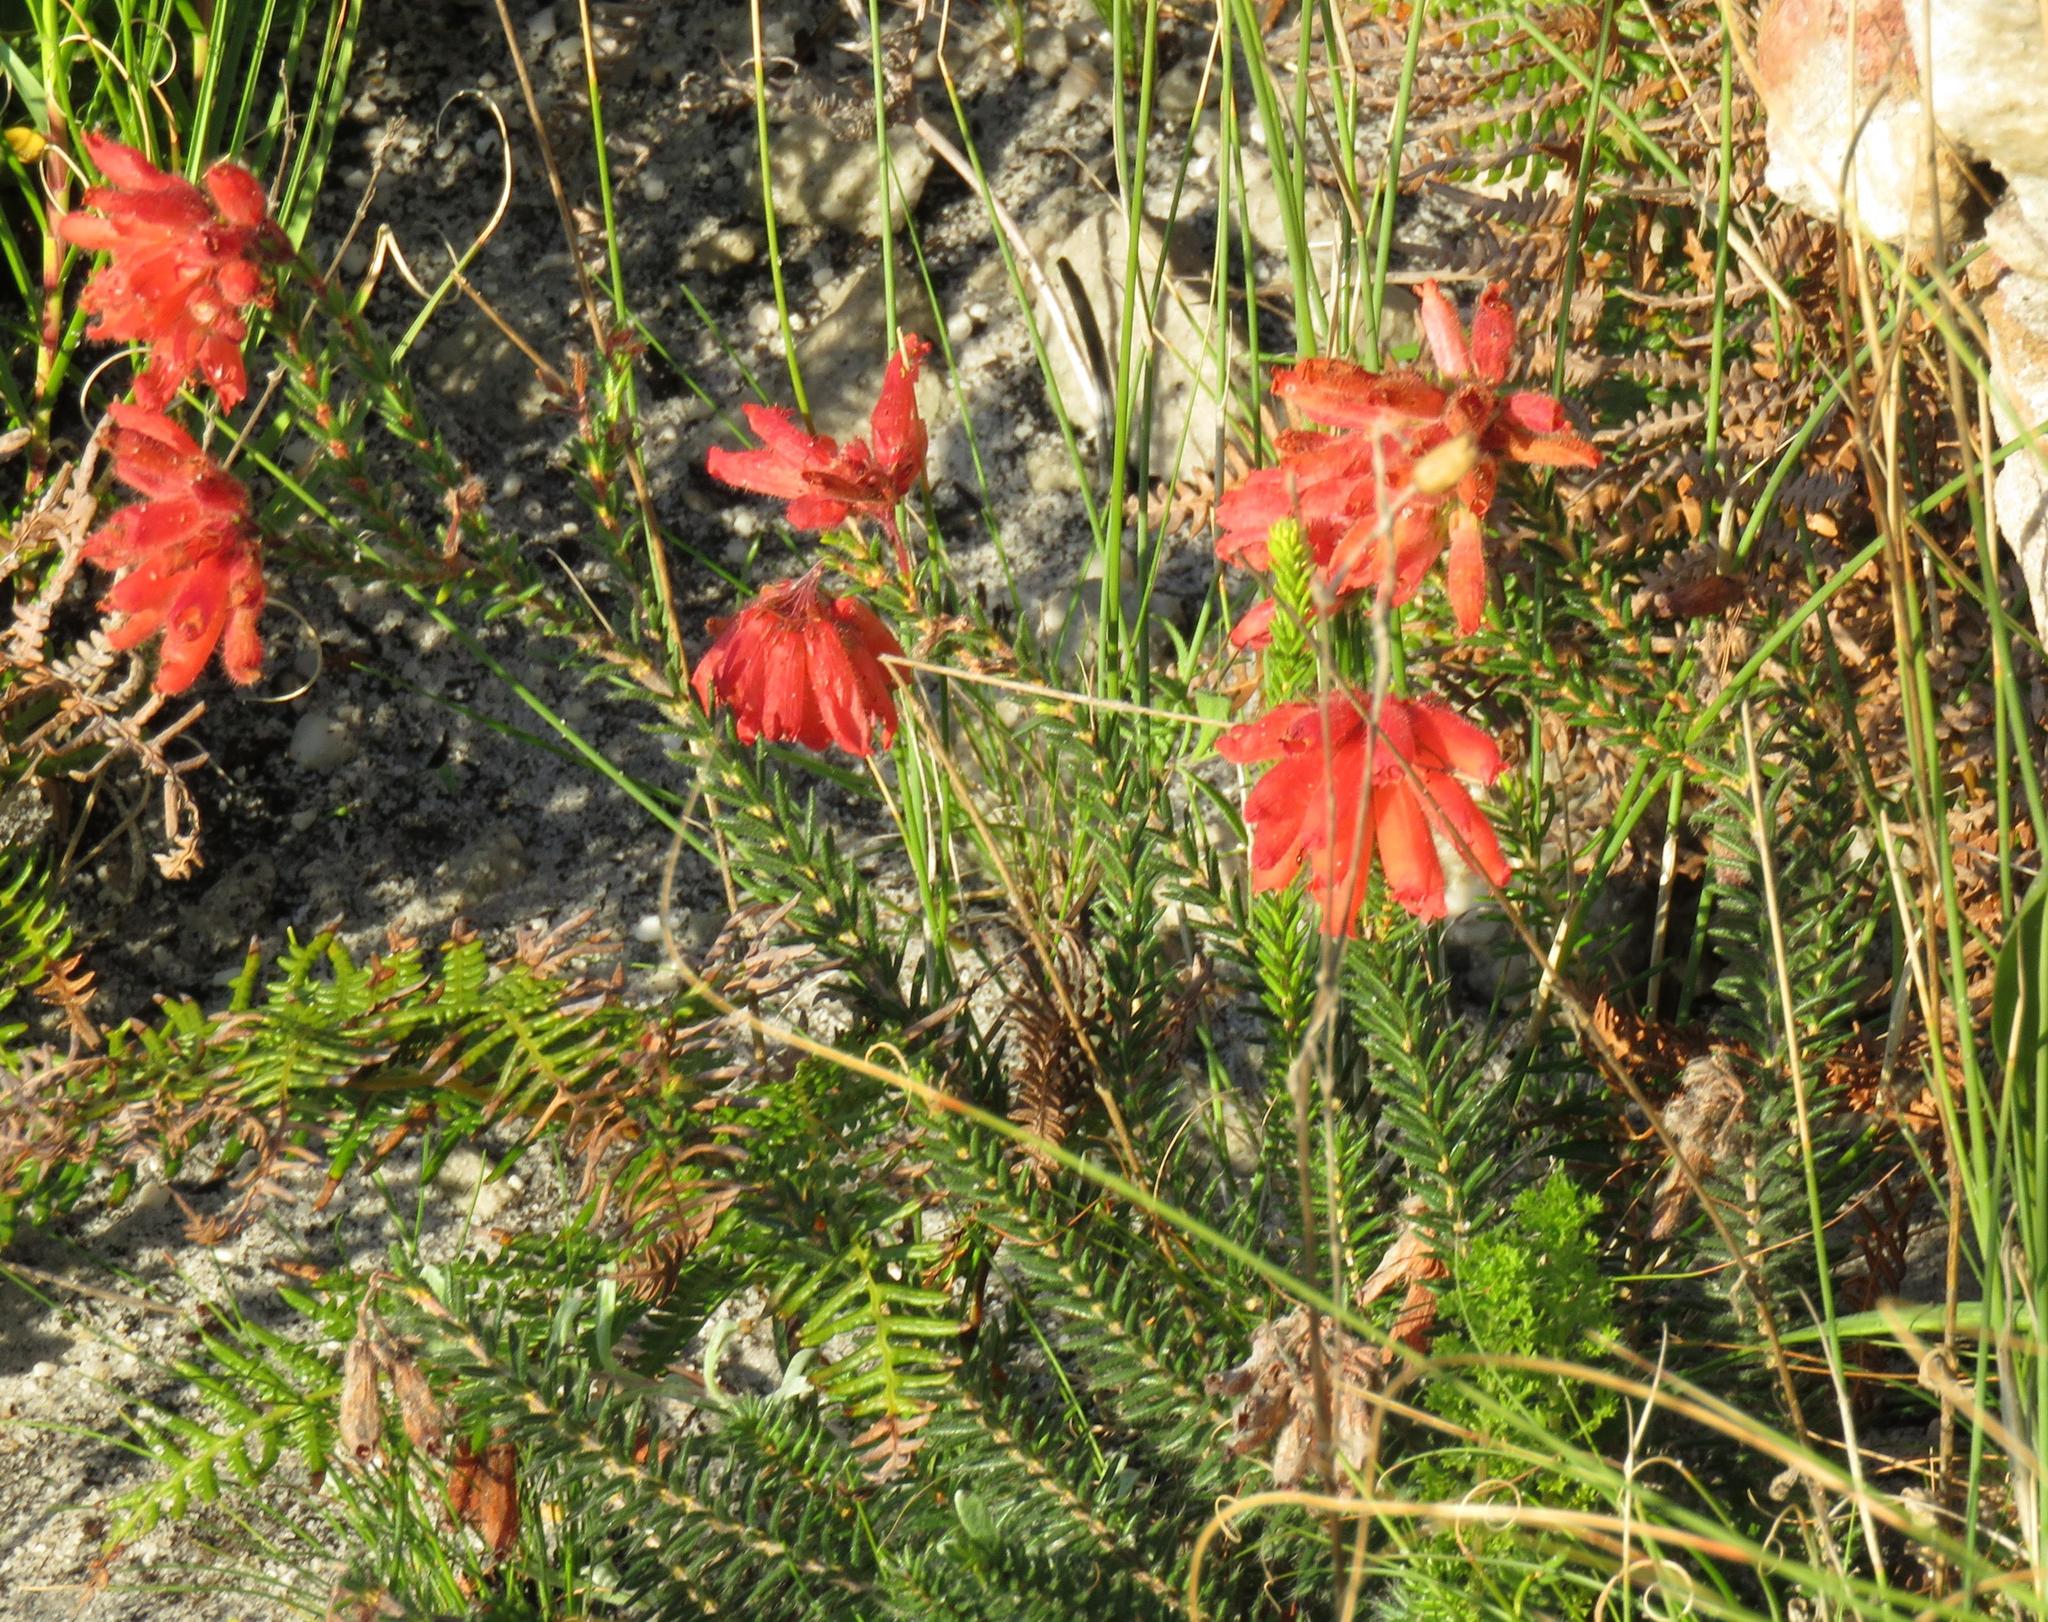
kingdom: Plantae
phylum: Tracheophyta
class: Magnoliopsida
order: Ericales
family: Ericaceae
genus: Erica
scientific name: Erica cerinthoides
